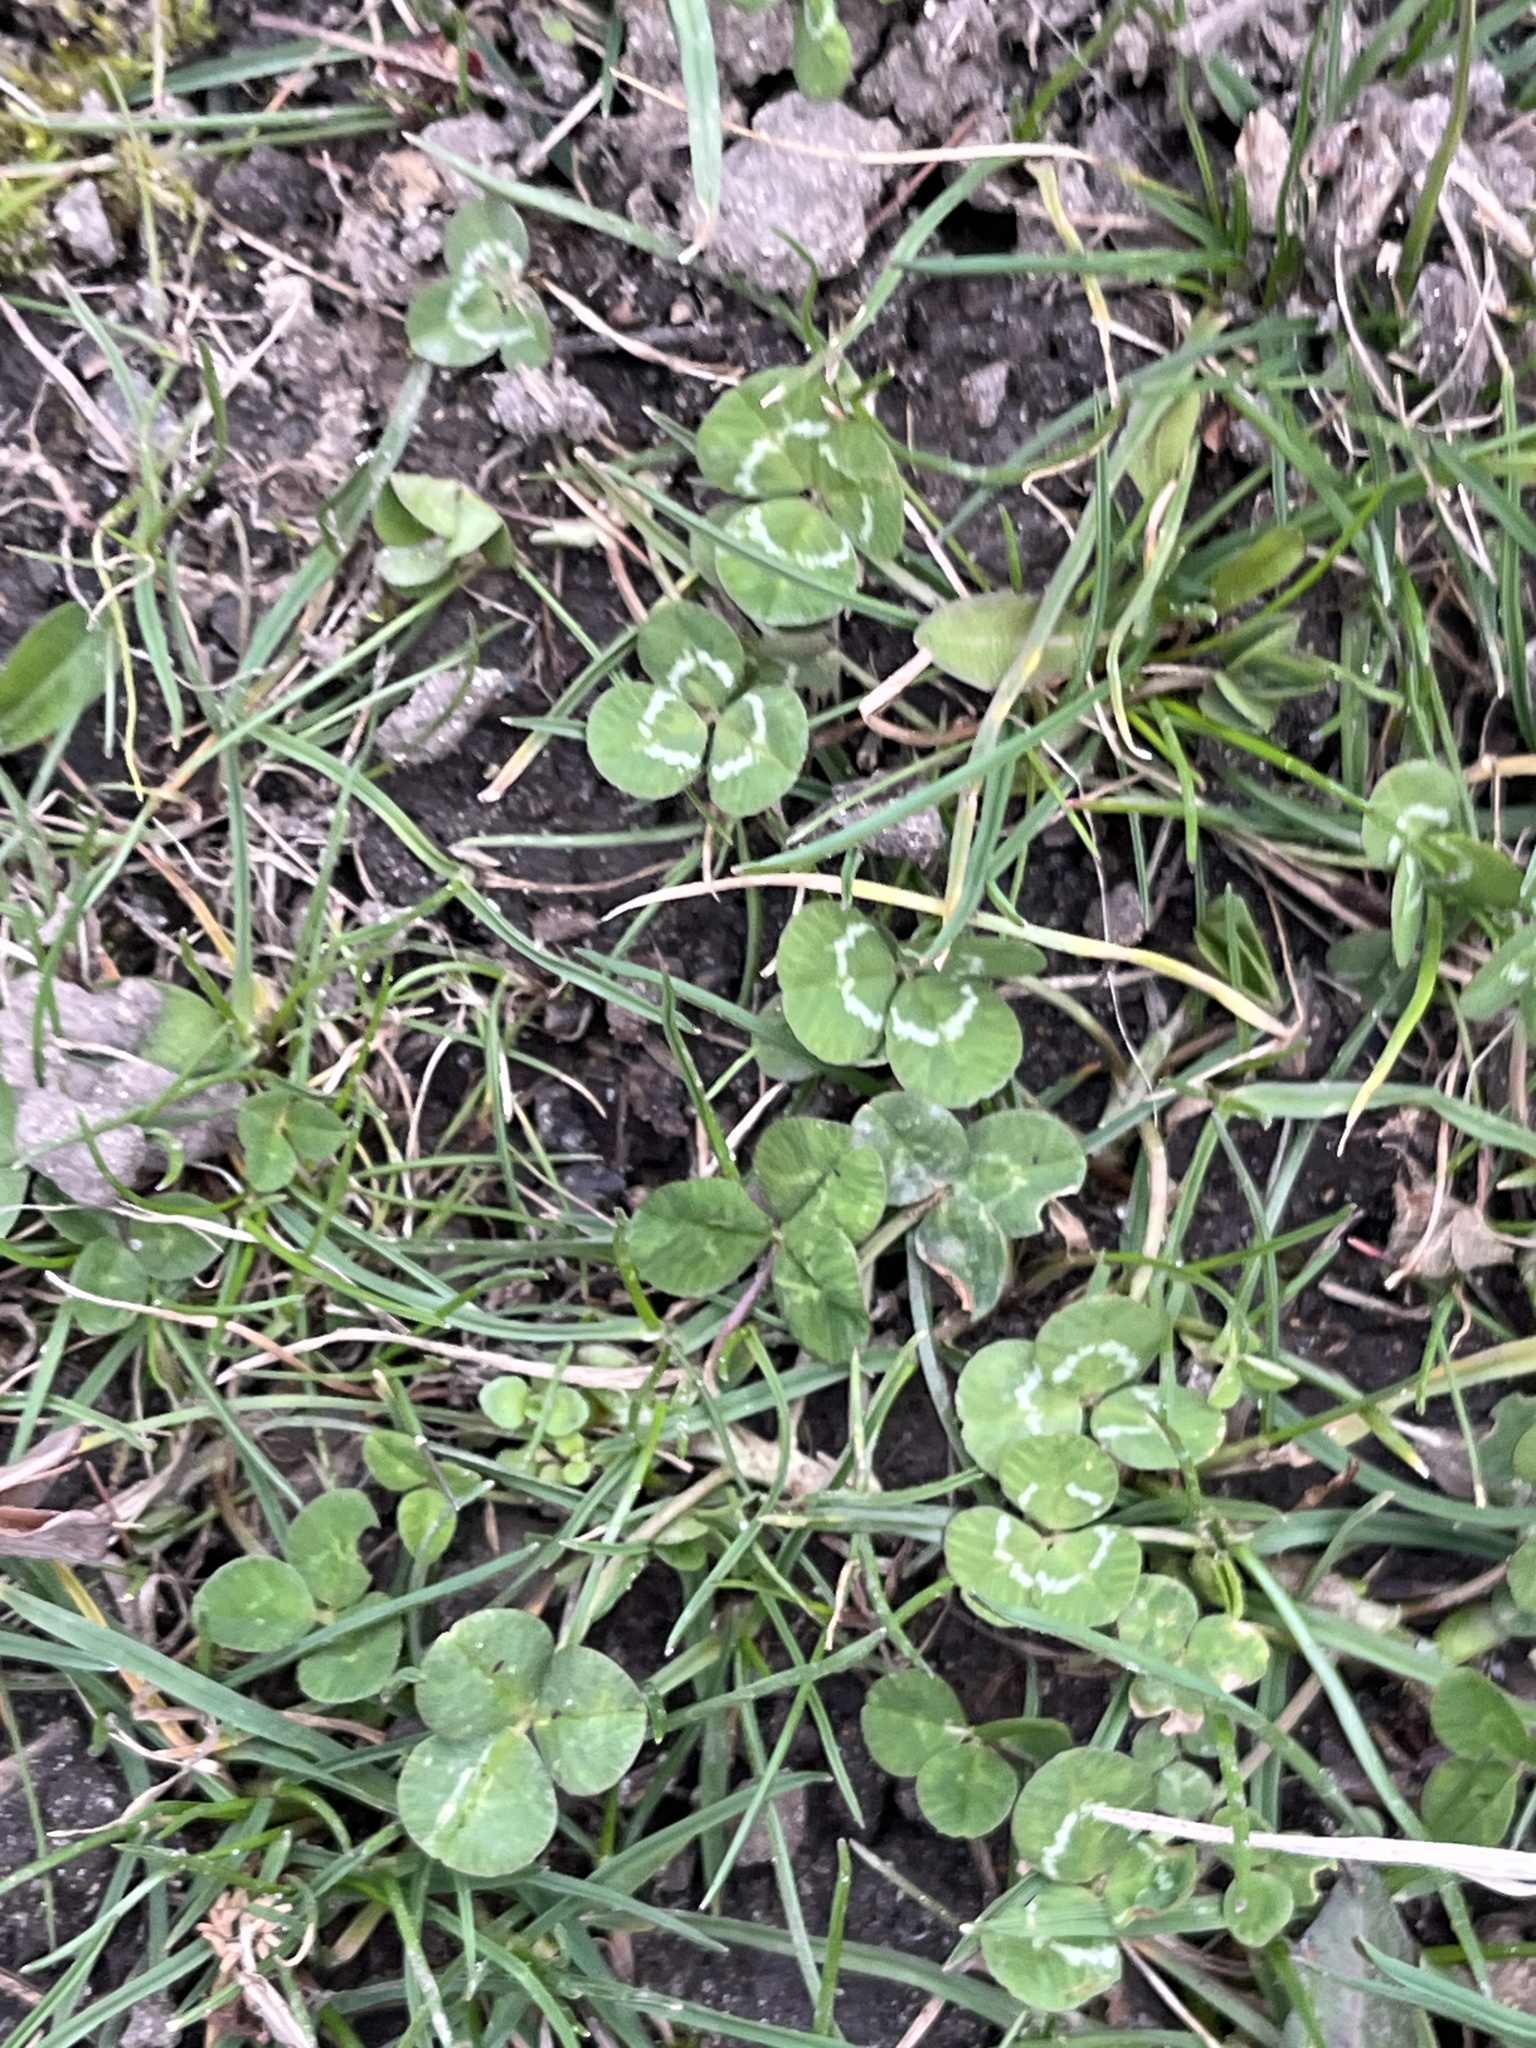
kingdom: Plantae
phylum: Tracheophyta
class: Magnoliopsida
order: Fabales
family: Fabaceae
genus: Trifolium
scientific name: Trifolium repens
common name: White clover
